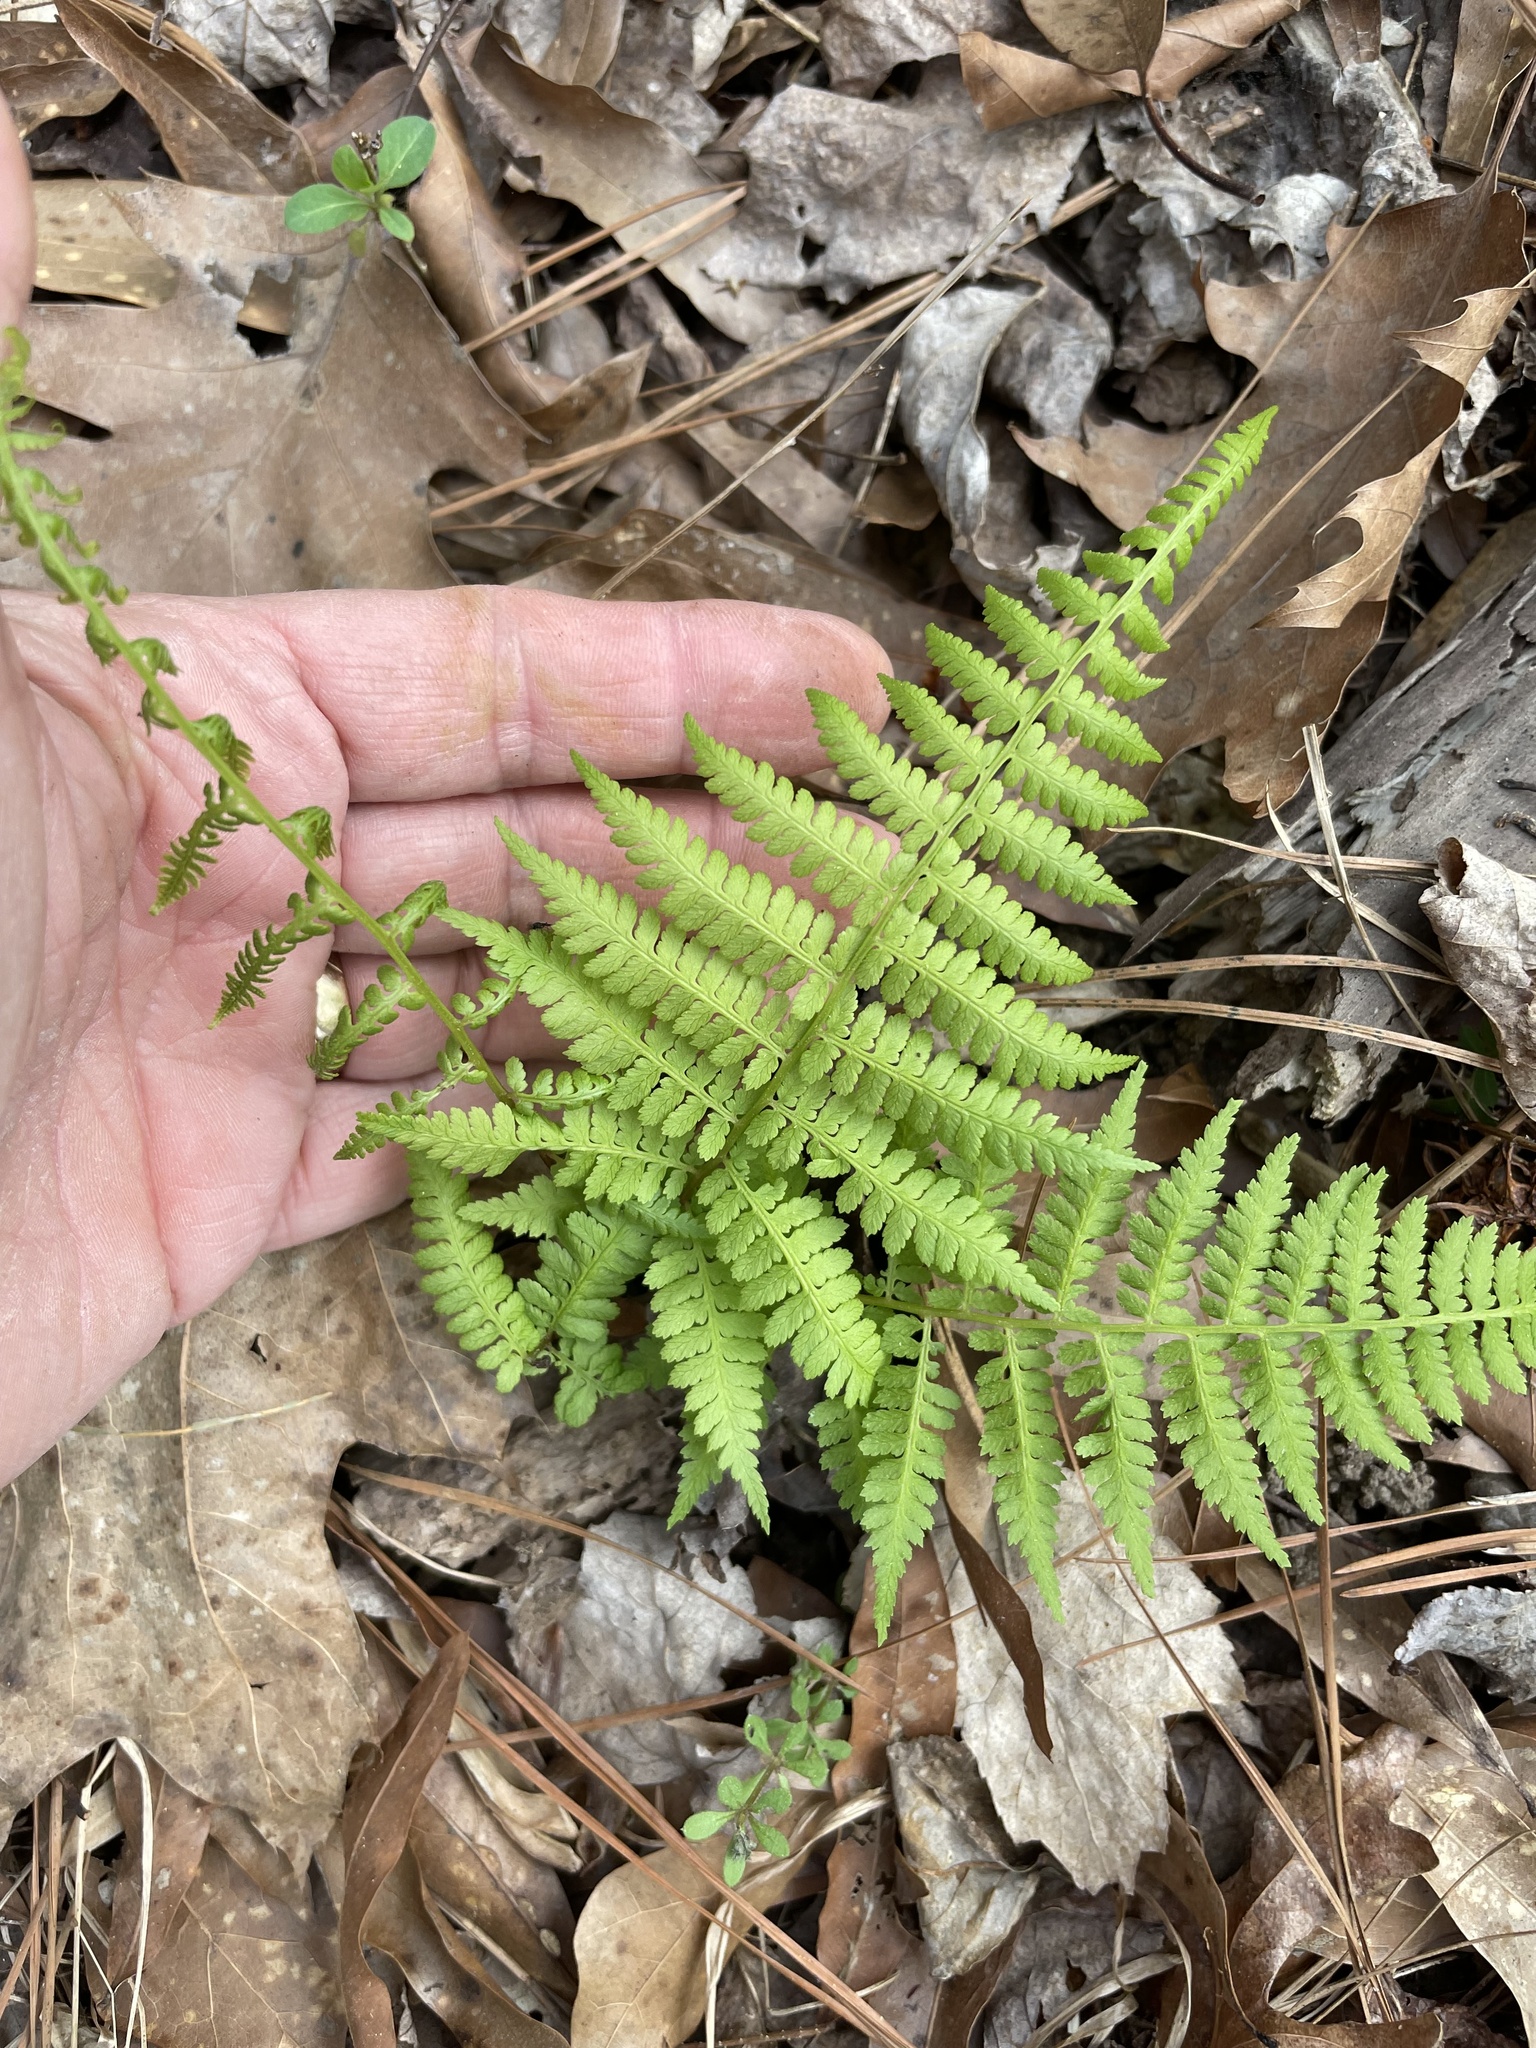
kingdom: Plantae
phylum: Tracheophyta
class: Polypodiopsida
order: Polypodiales
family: Athyriaceae
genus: Athyrium
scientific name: Athyrium asplenioides
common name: Southern lady fern
